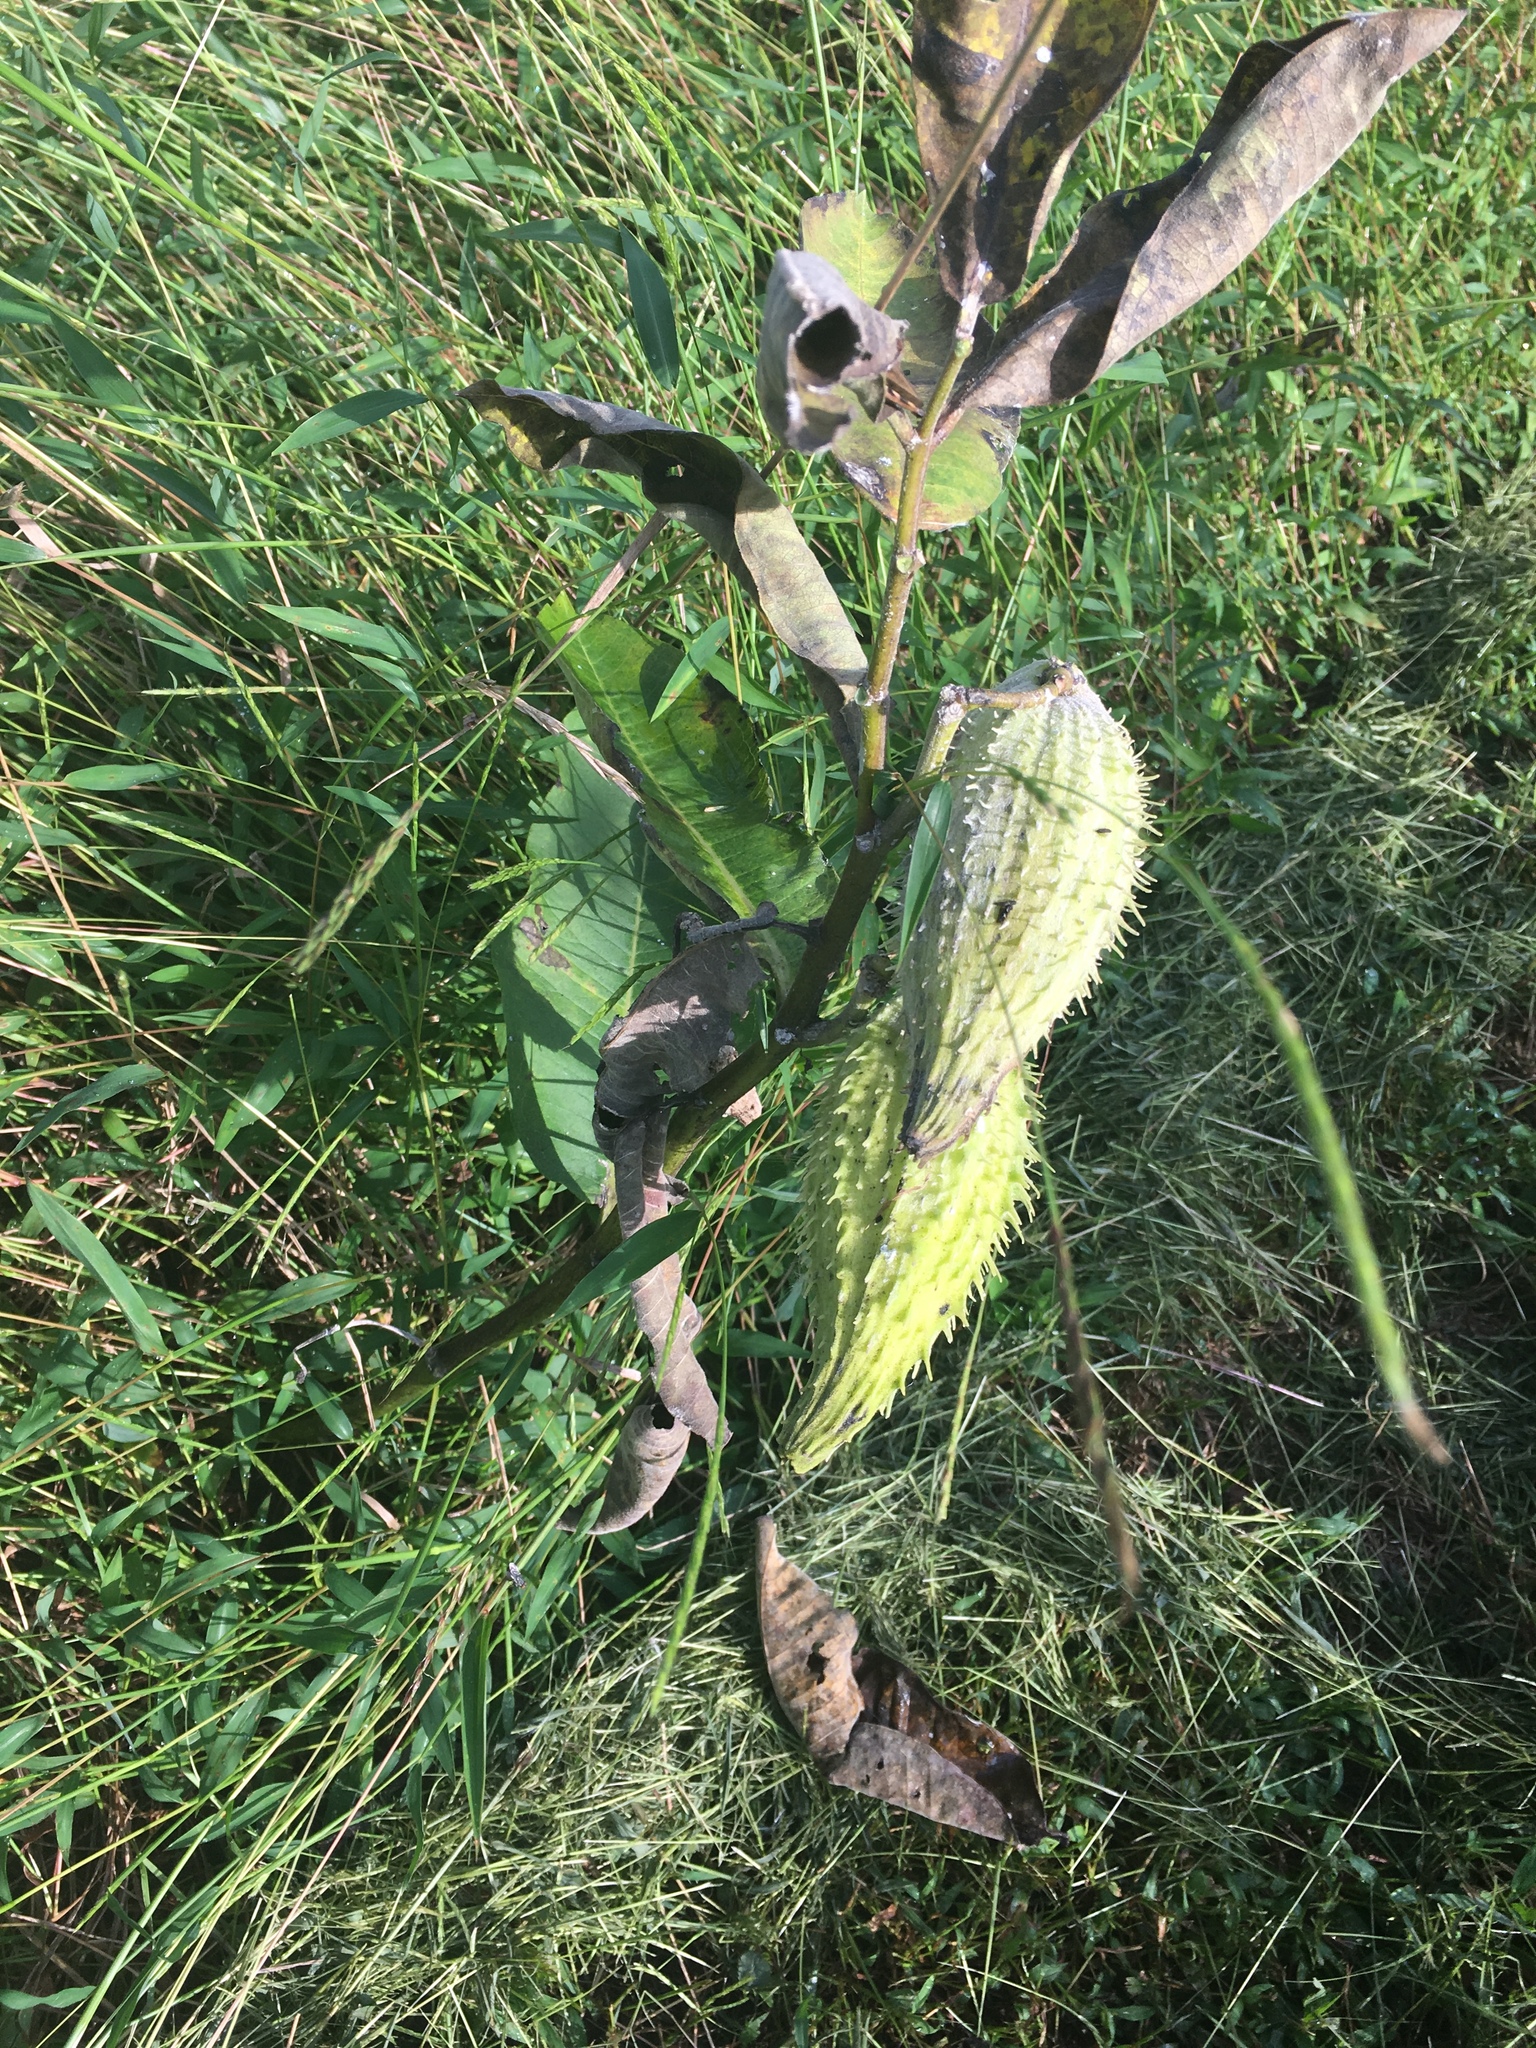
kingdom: Plantae
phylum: Tracheophyta
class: Magnoliopsida
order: Gentianales
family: Apocynaceae
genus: Asclepias
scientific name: Asclepias syriaca
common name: Common milkweed
